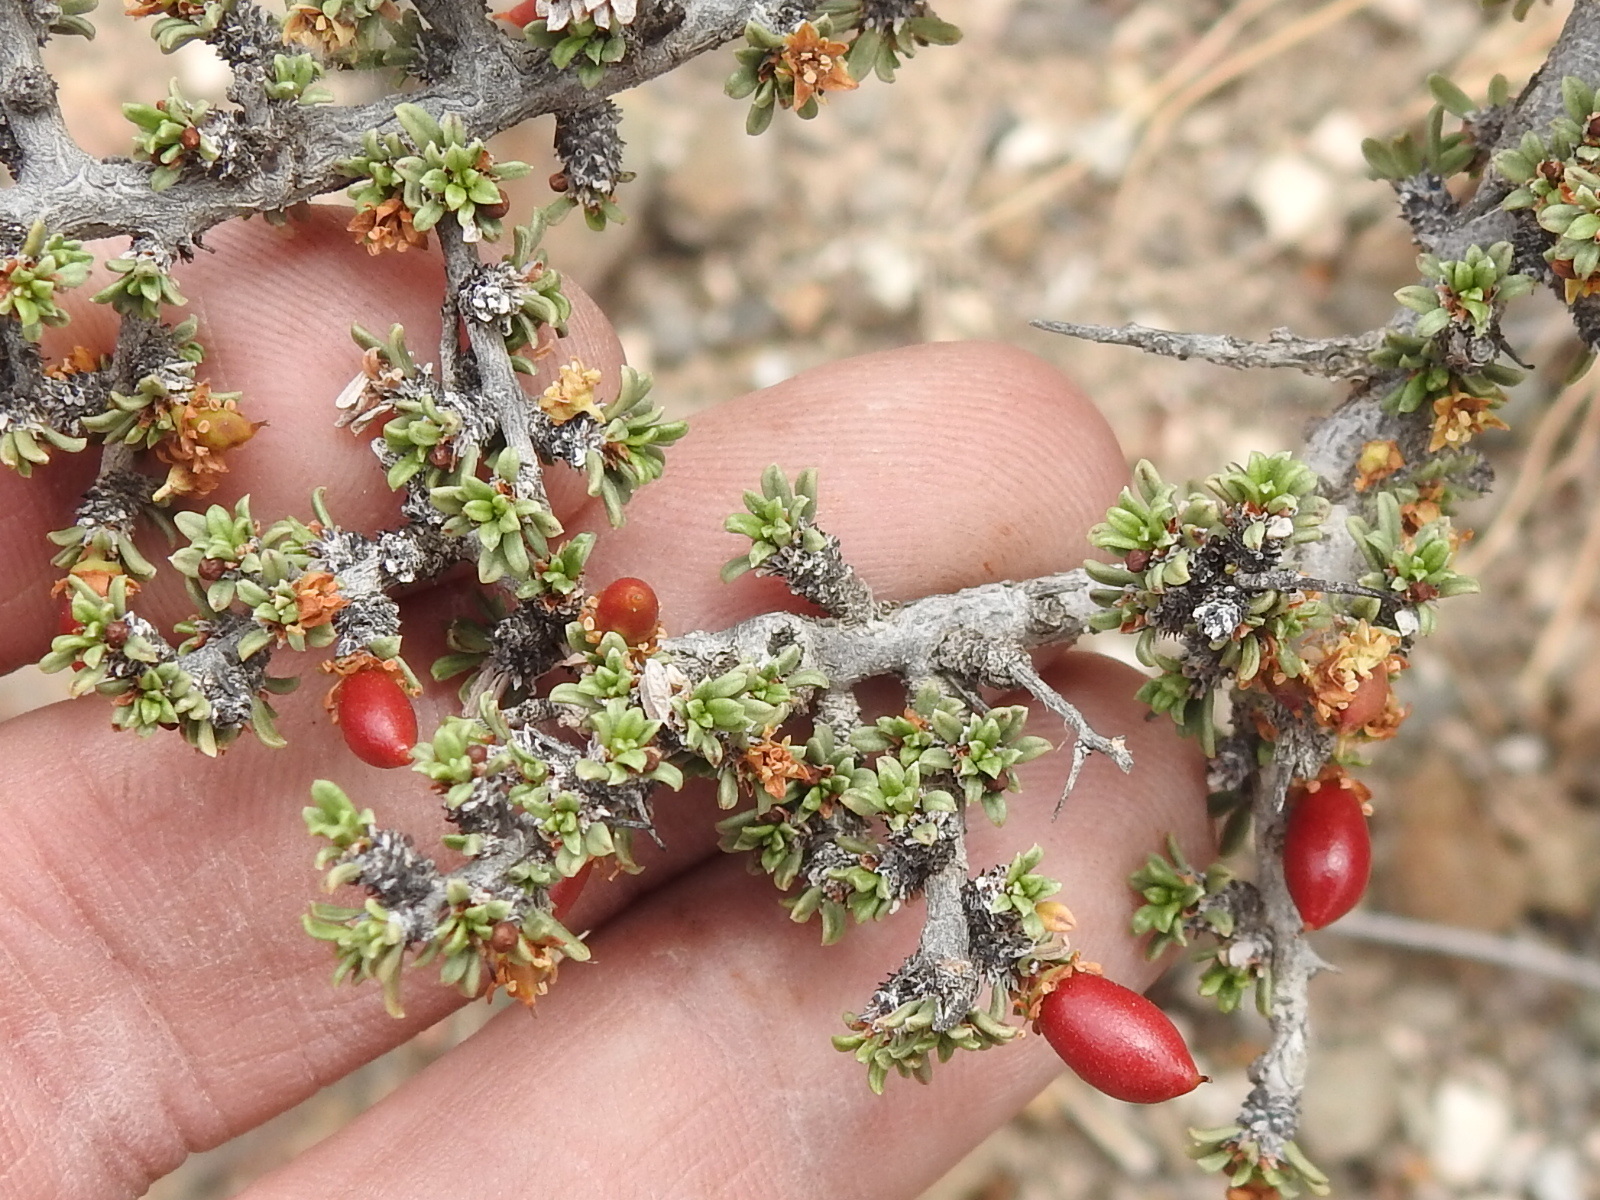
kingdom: Plantae
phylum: Tracheophyta
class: Magnoliopsida
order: Rosales
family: Rhamnaceae
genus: Condalia
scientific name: Condalia ericoides
